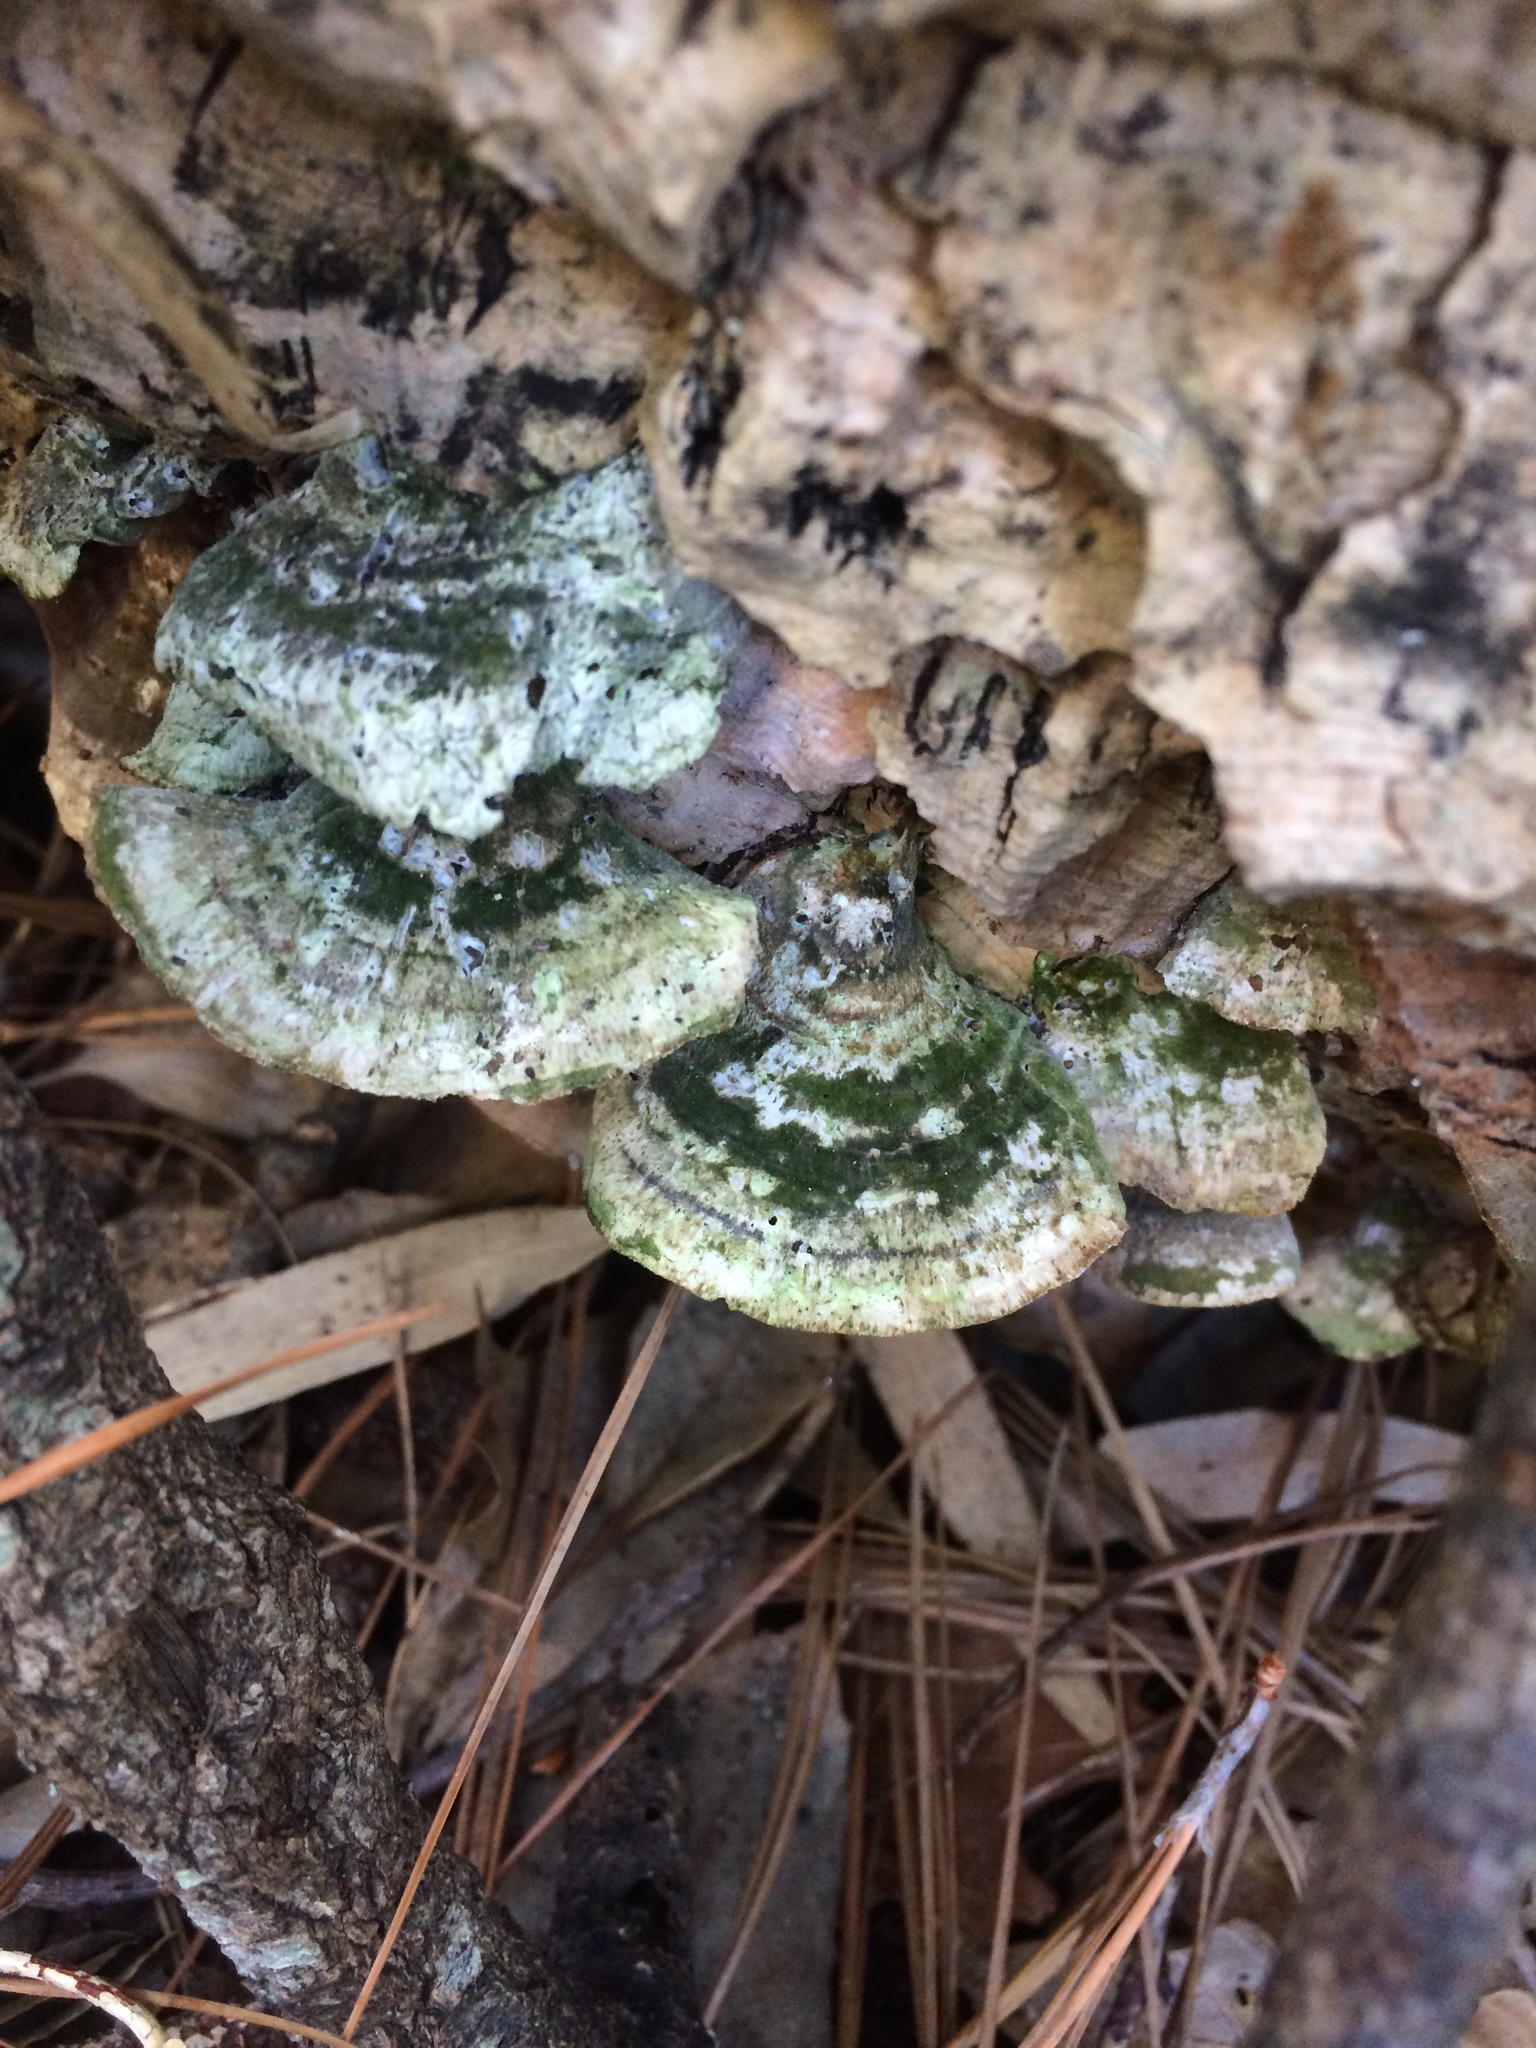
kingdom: Fungi
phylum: Basidiomycota
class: Agaricomycetes
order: Polyporales
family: Polyporaceae
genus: Trametes
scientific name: Trametes versicolor
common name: Turkeytail
